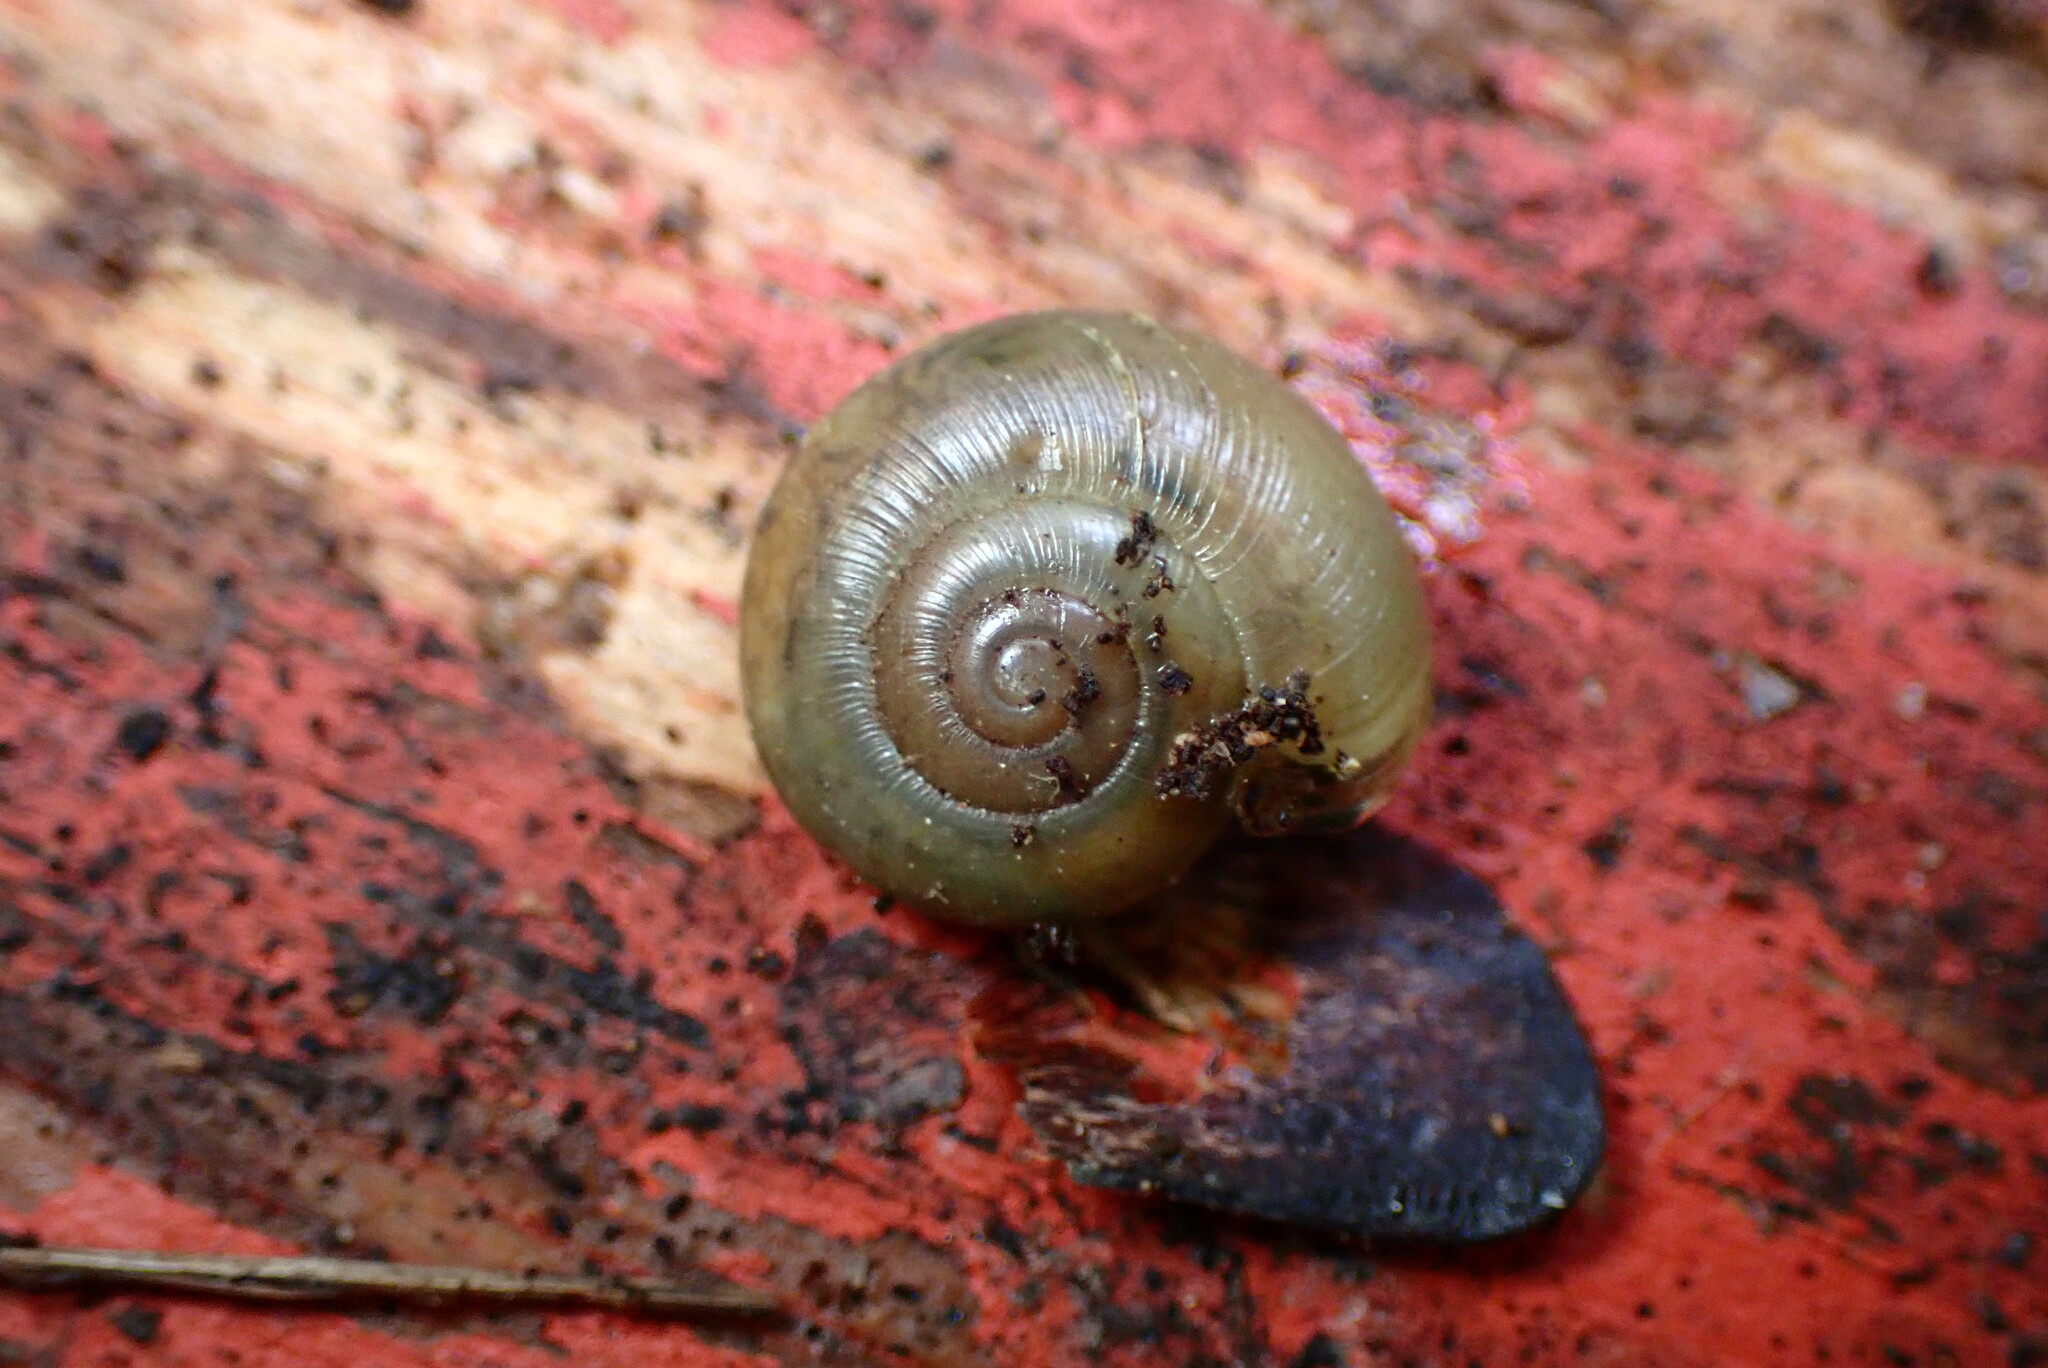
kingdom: Animalia
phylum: Mollusca
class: Gastropoda
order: Stylommatophora
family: Haplotrematidae
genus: Haplotrema
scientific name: Haplotrema minimum
